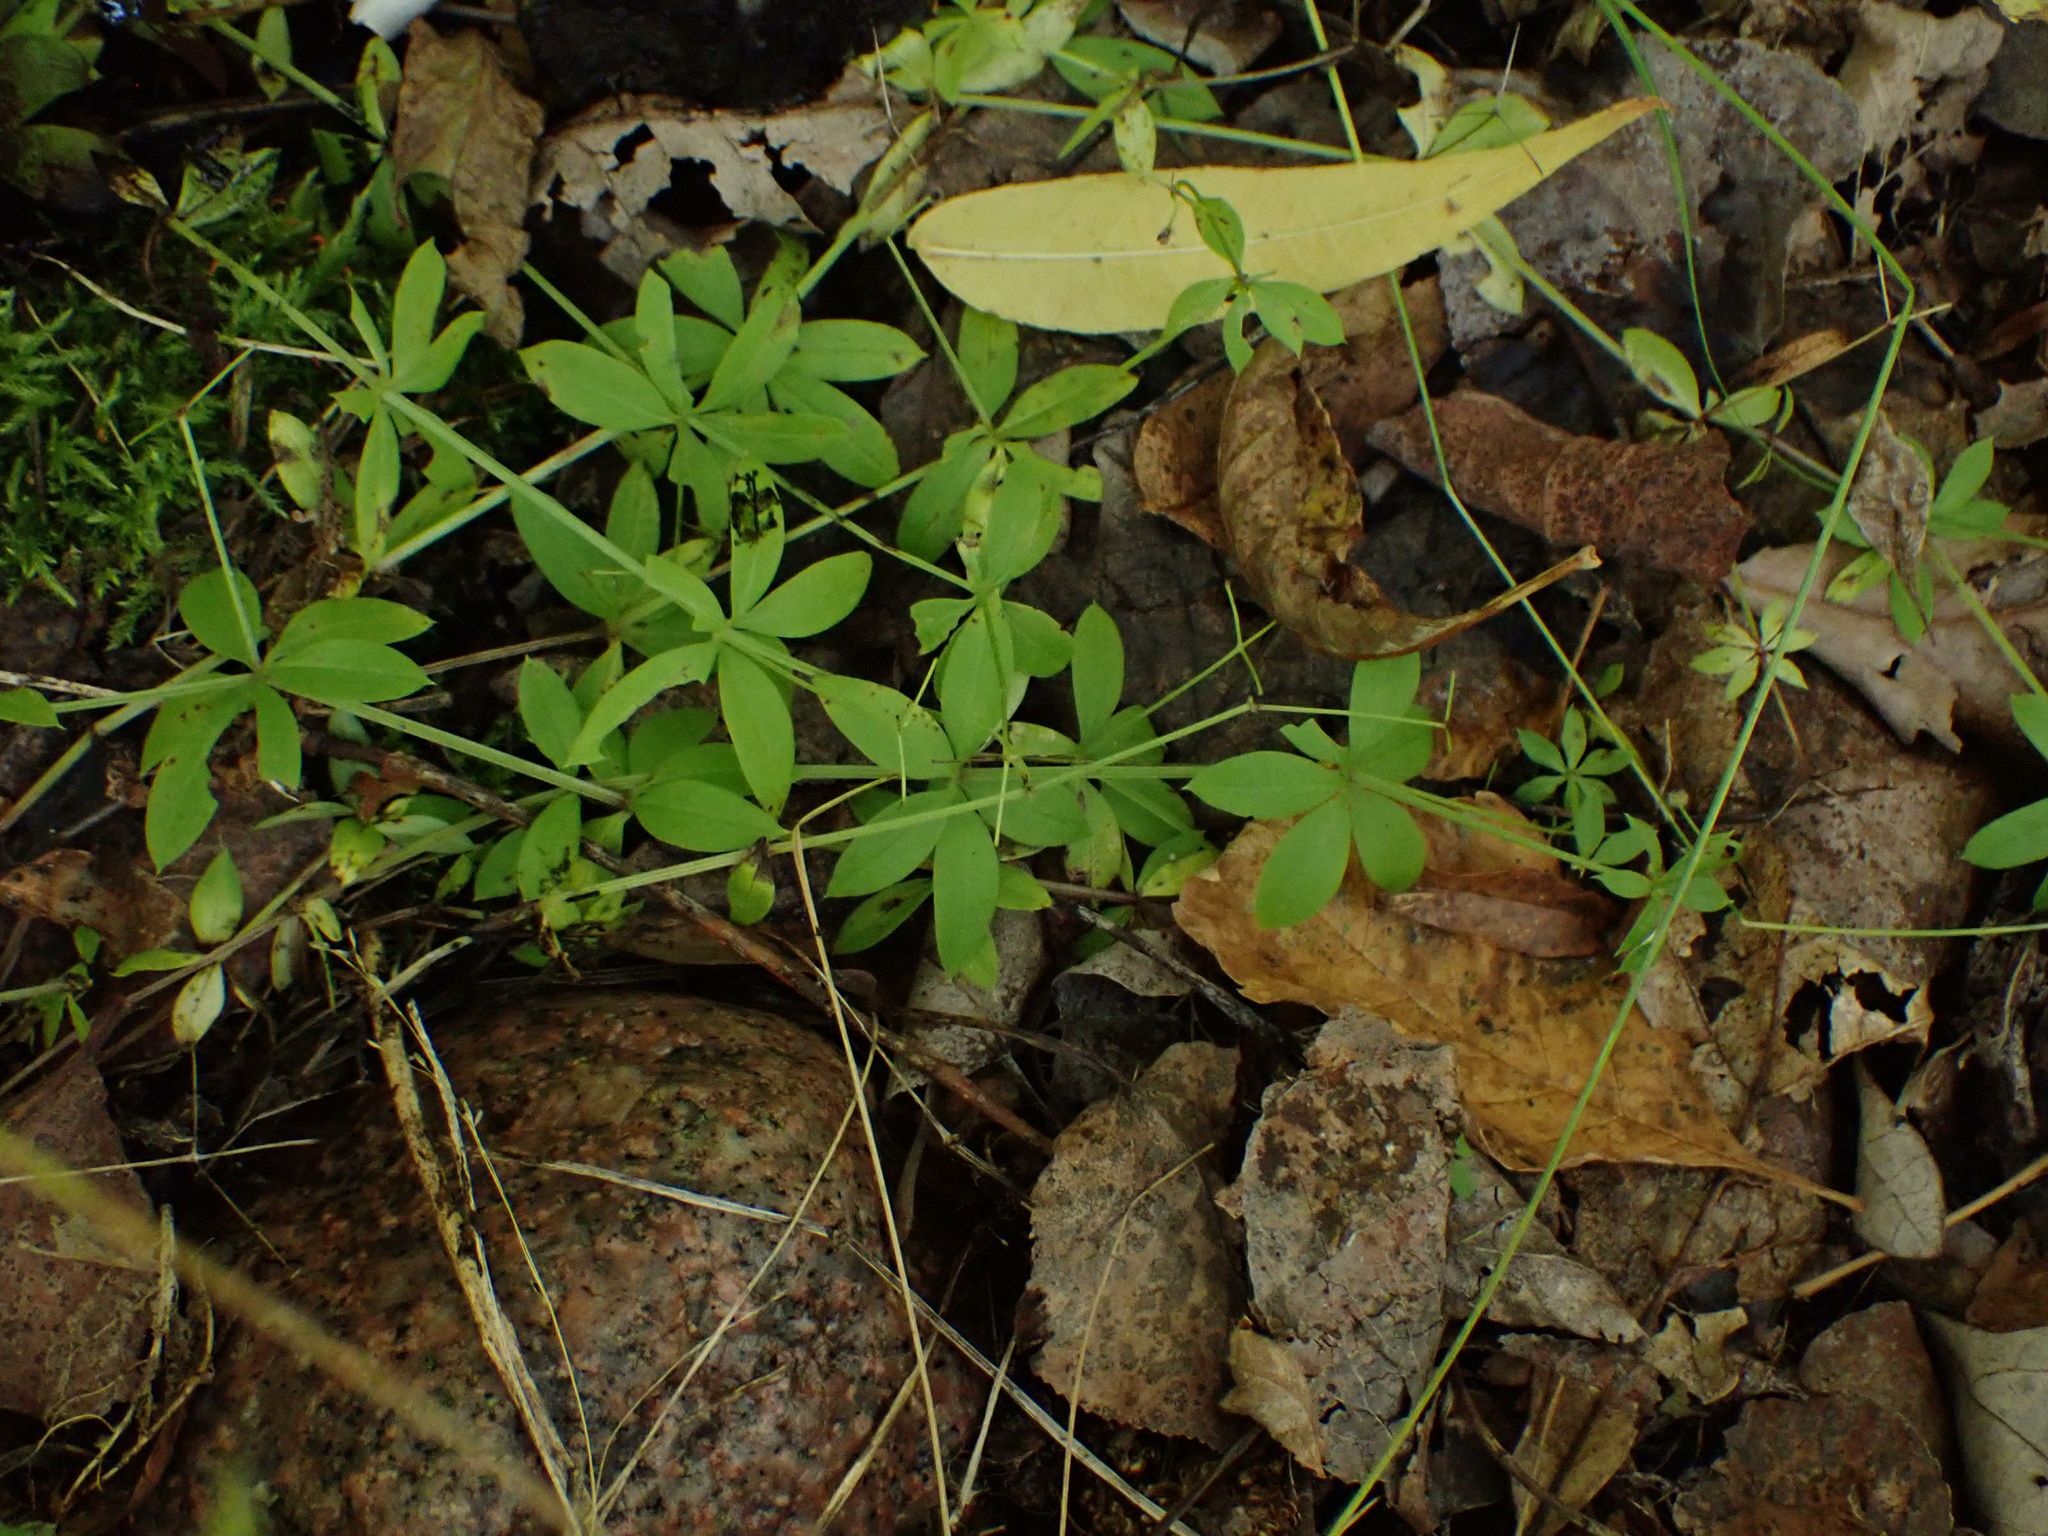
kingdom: Plantae
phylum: Tracheophyta
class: Magnoliopsida
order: Gentianales
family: Rubiaceae
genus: Galium
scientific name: Galium triflorum
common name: Fragrant bedstraw
